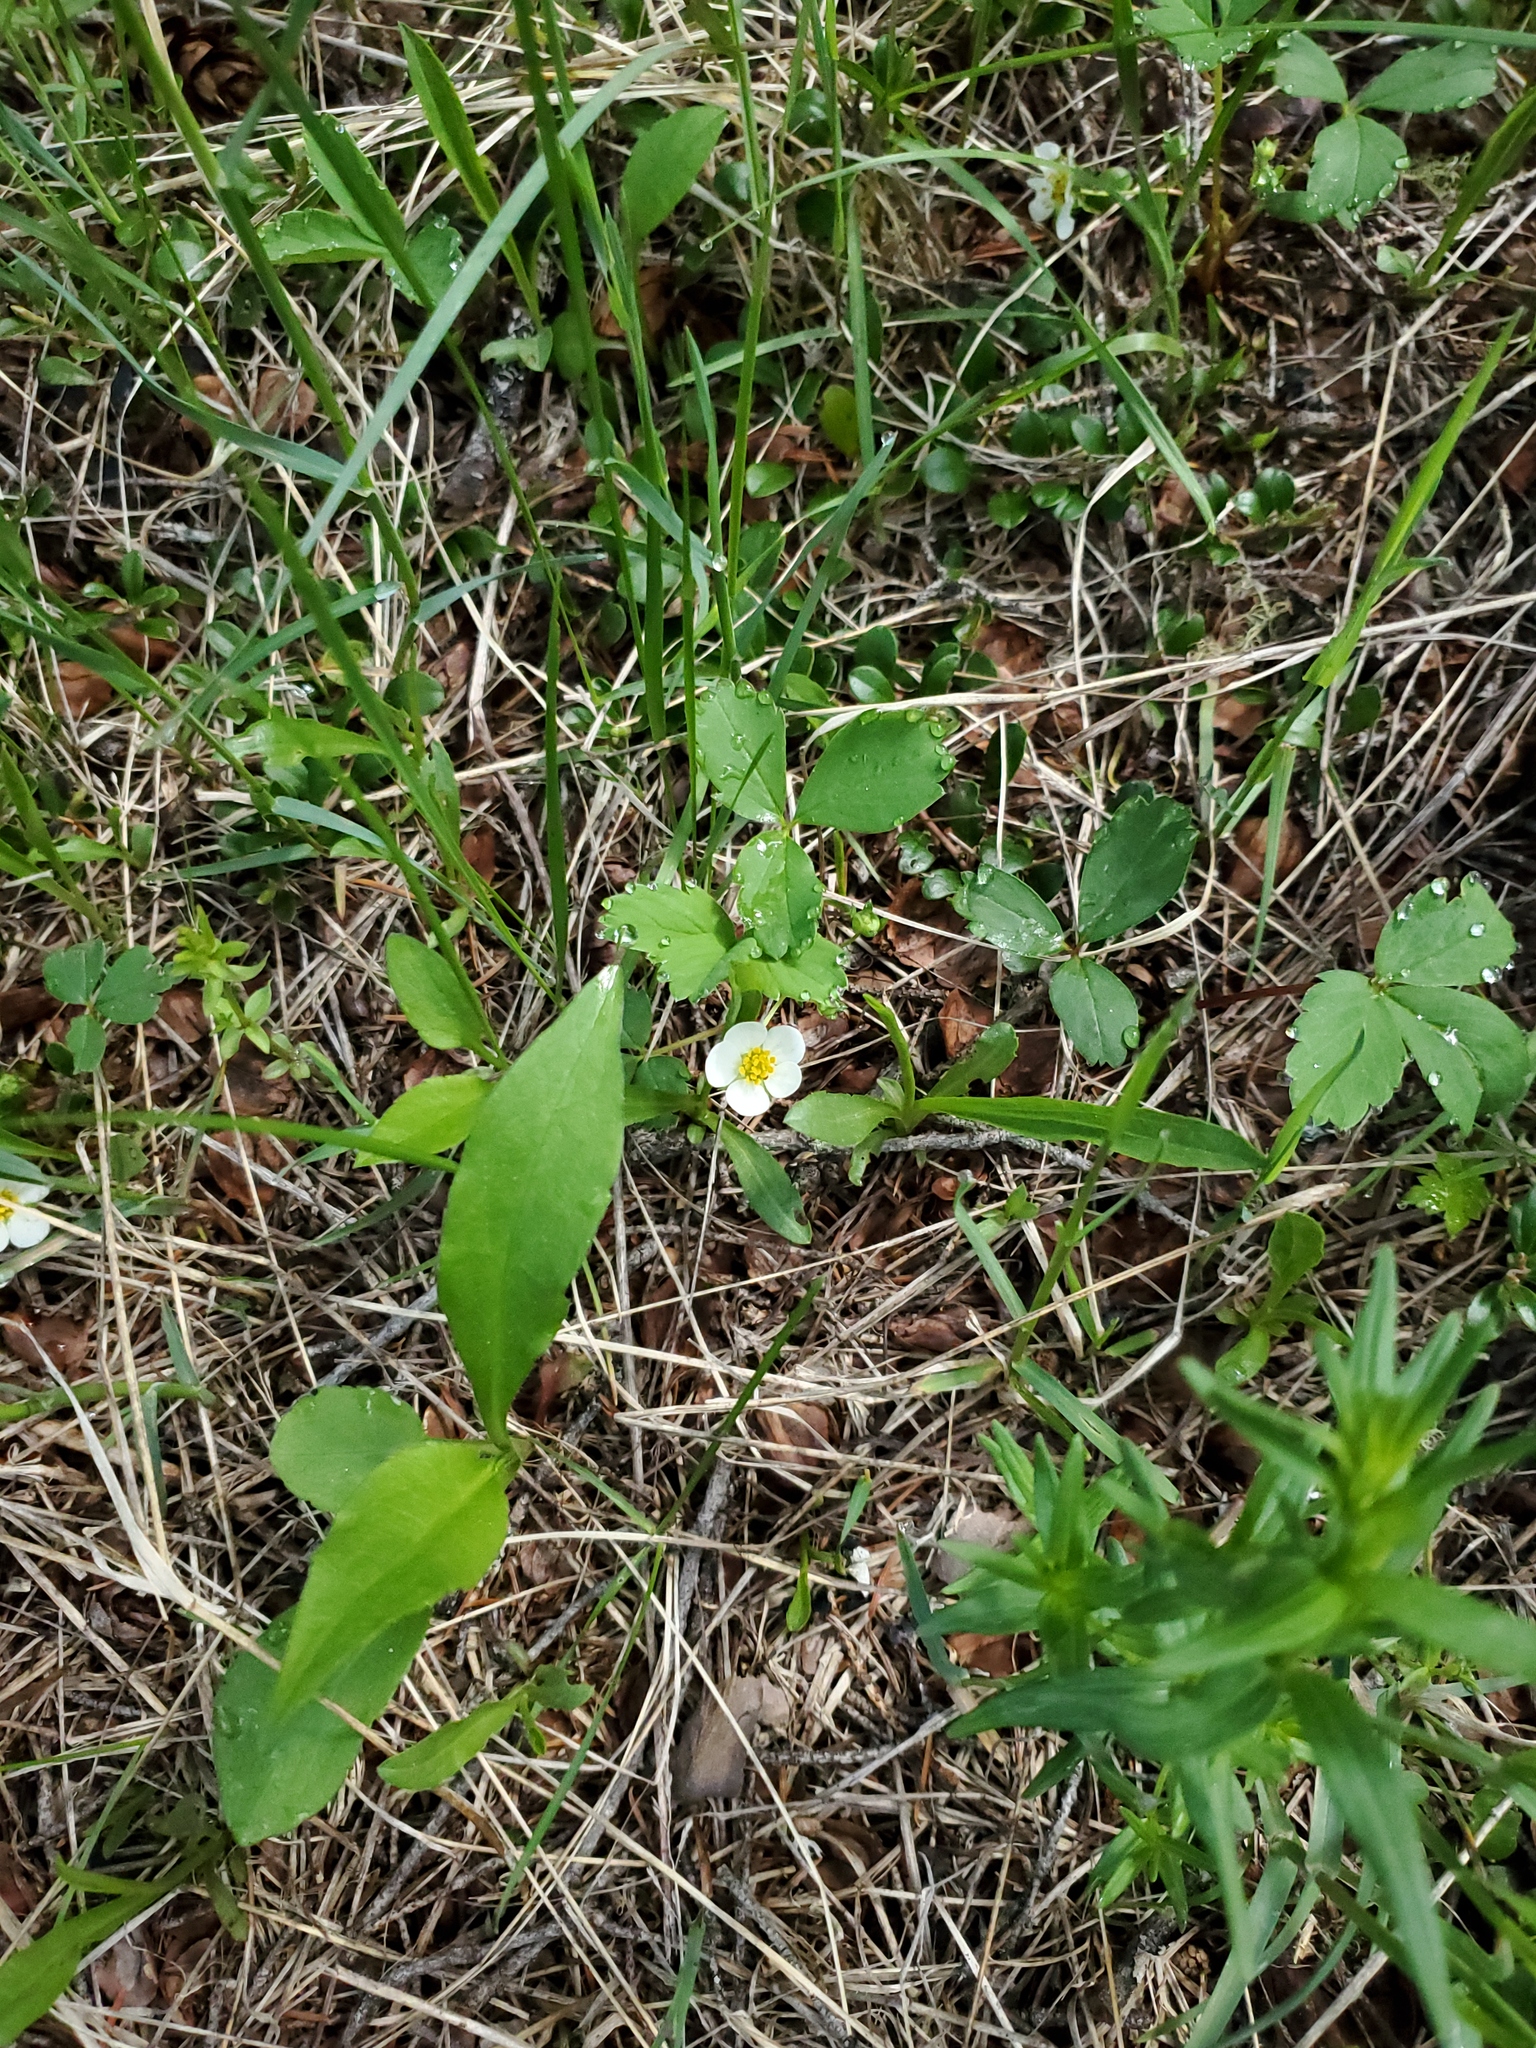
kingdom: Plantae
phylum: Tracheophyta
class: Magnoliopsida
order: Rosales
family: Rosaceae
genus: Fragaria
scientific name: Fragaria virginiana
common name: Thickleaved wild strawberry
